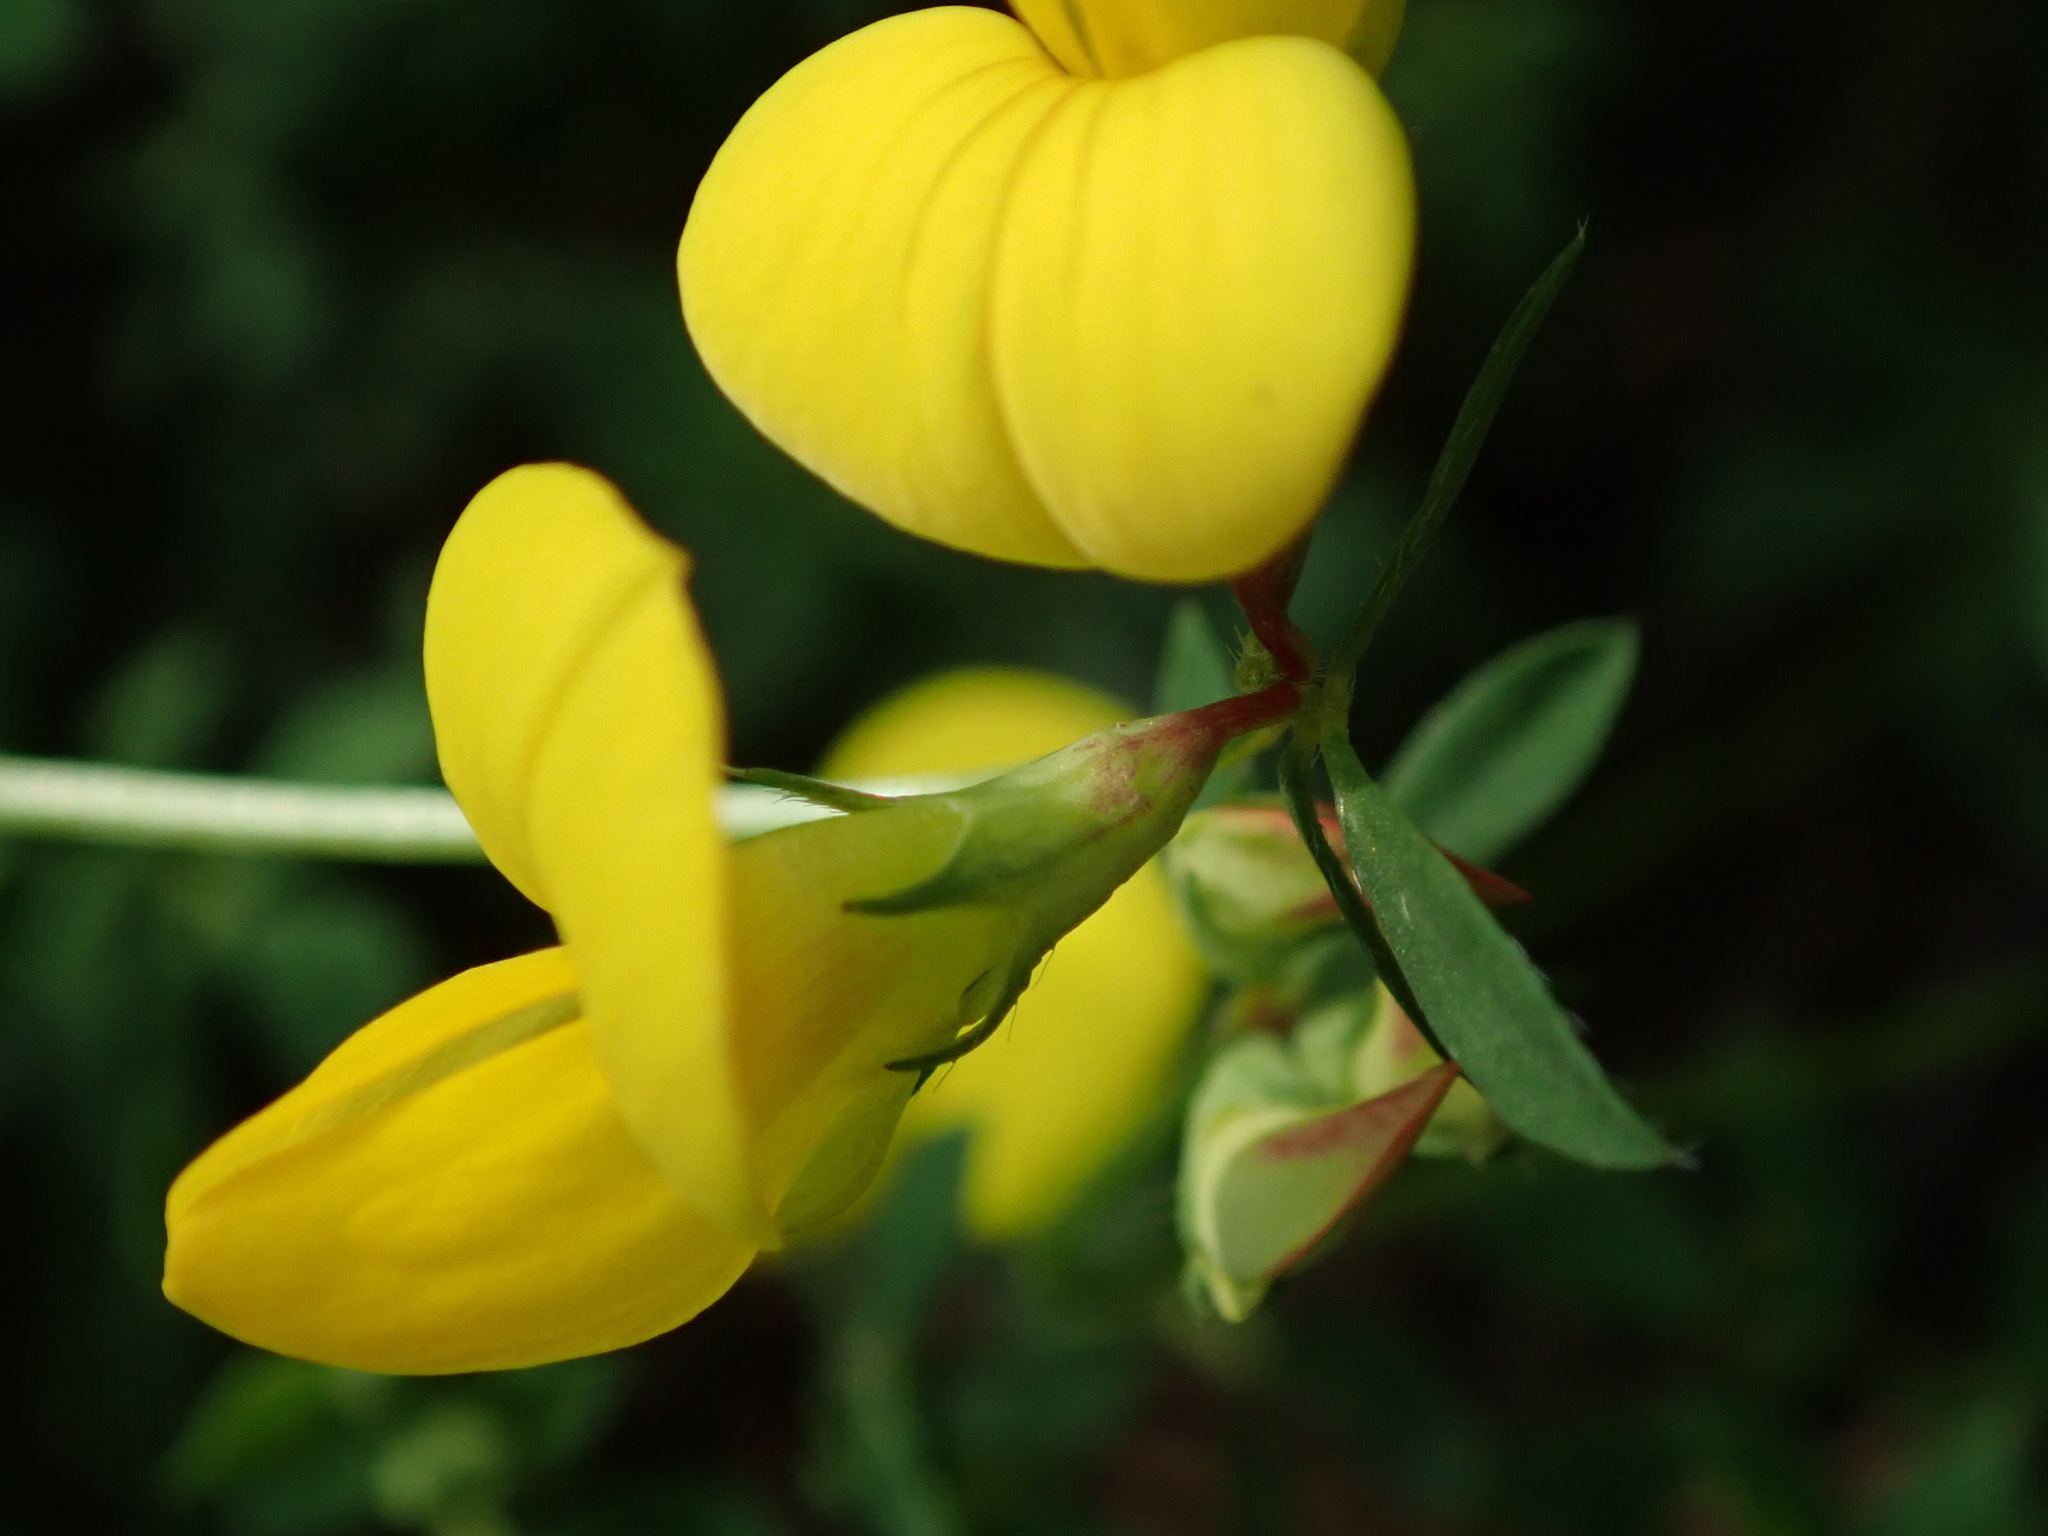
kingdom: Plantae
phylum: Tracheophyta
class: Magnoliopsida
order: Fabales
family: Fabaceae
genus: Lotus
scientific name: Lotus corniculatus
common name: Common bird's-foot-trefoil
